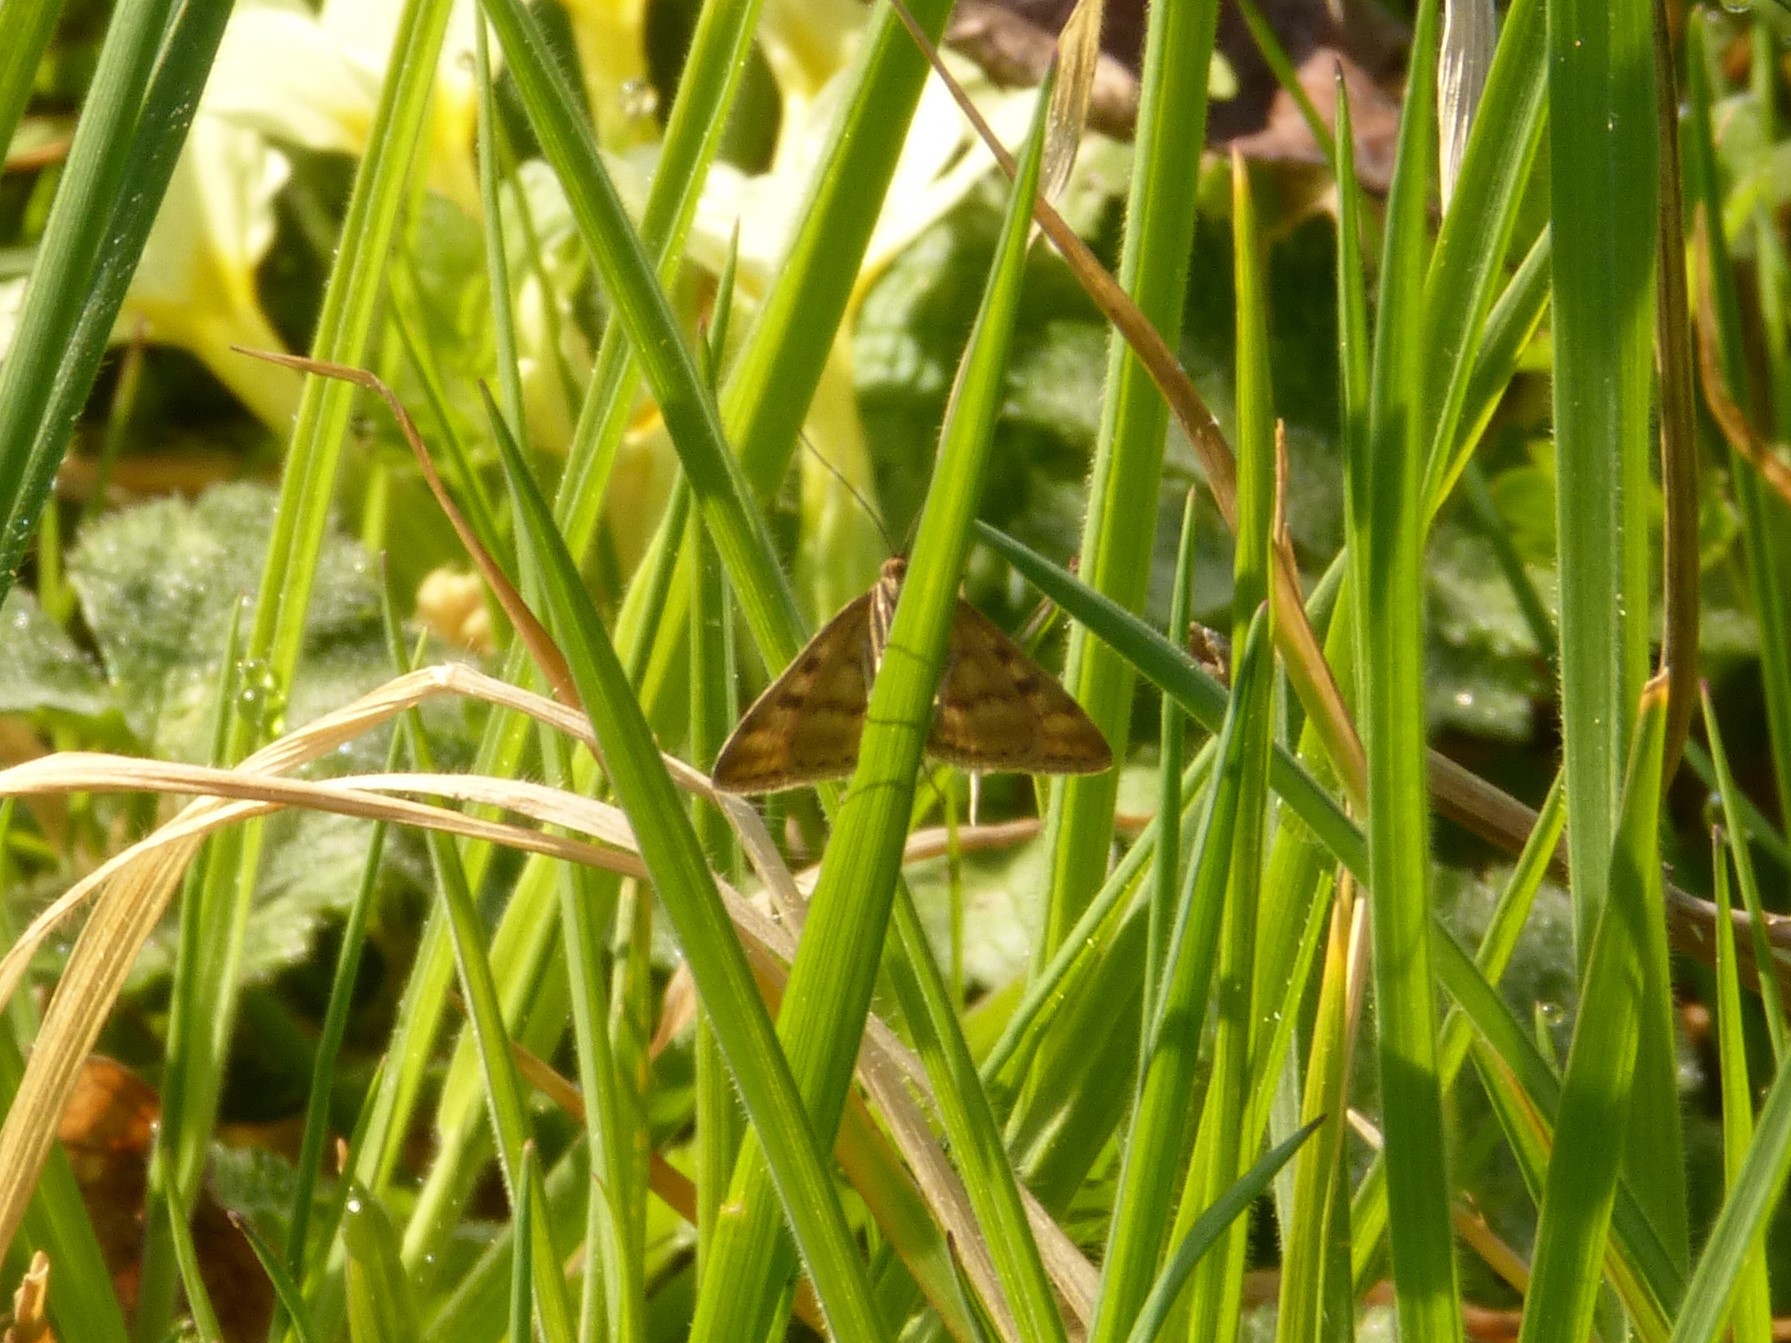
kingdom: Animalia
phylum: Arthropoda
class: Insecta
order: Lepidoptera
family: Crambidae
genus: Pyrausta
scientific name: Pyrausta despicata
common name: Straw-barred pearl
